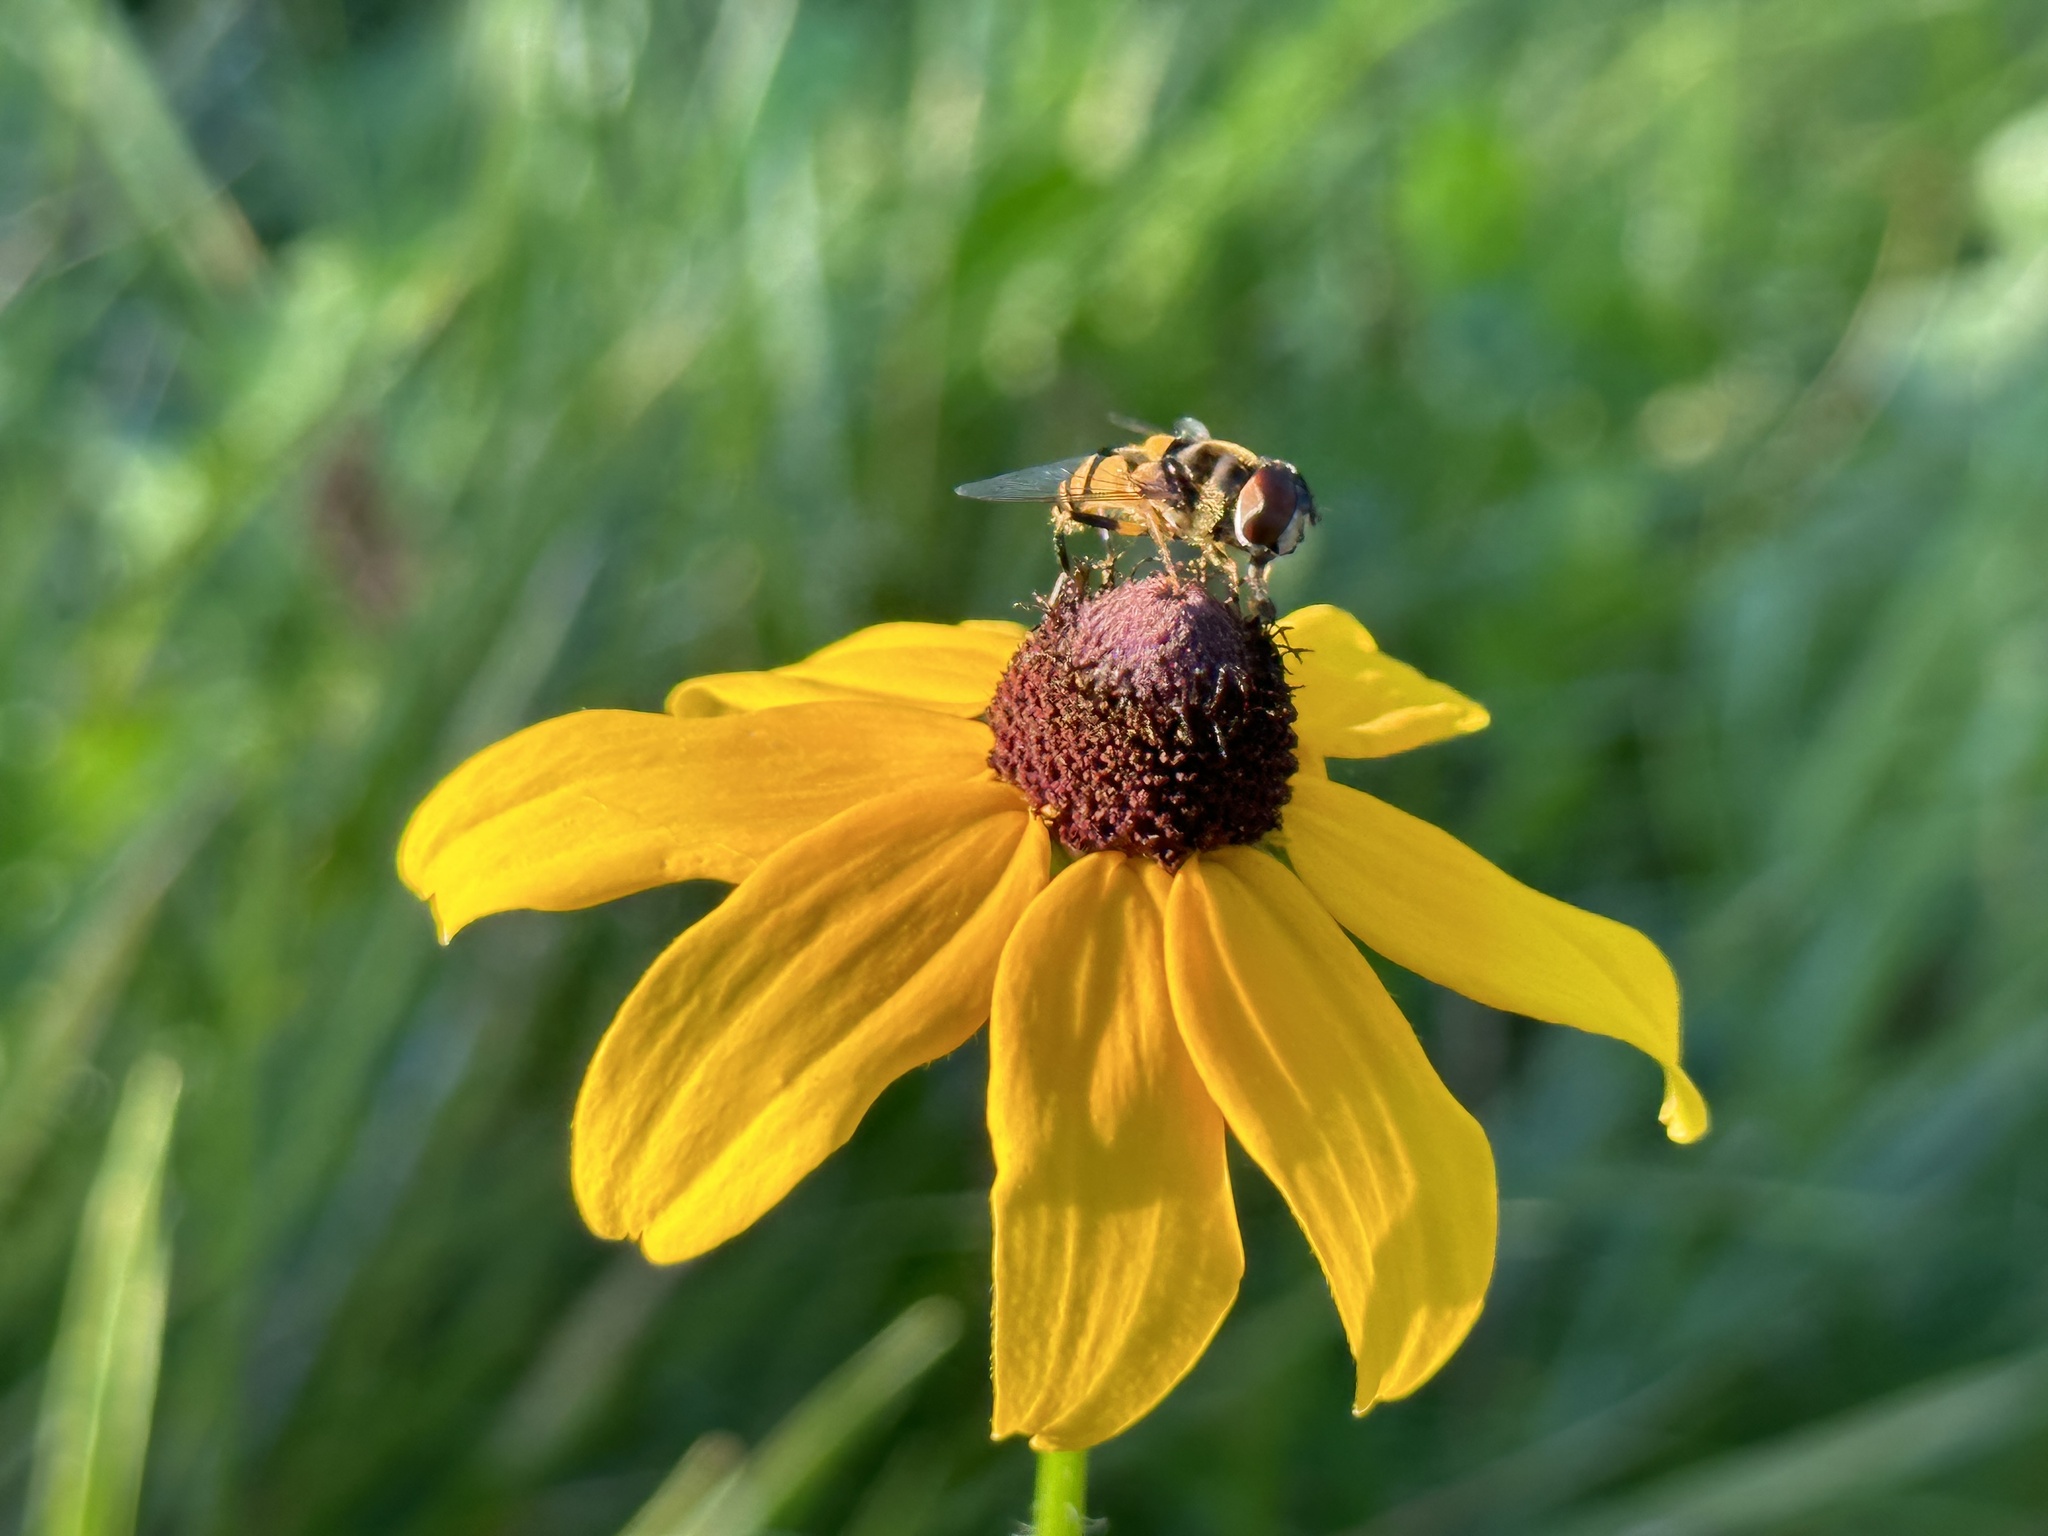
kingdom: Animalia
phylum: Arthropoda
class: Insecta
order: Diptera
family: Syrphidae
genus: Eristalis
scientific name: Eristalis transversa
